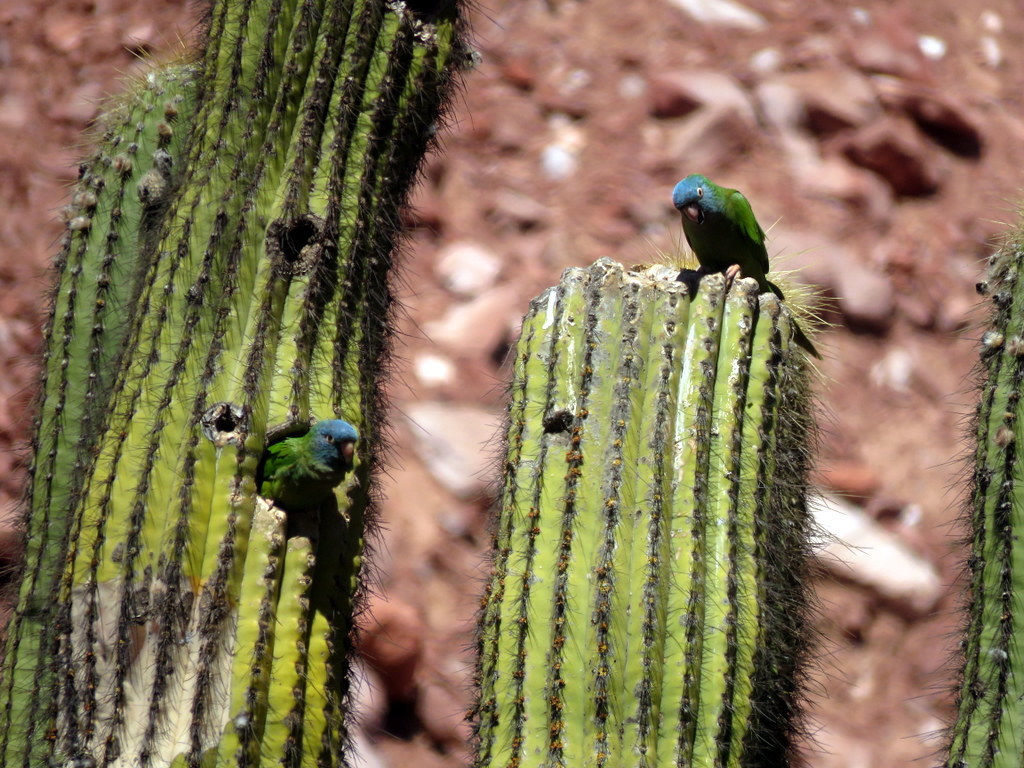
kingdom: Animalia
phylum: Chordata
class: Aves
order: Psittaciformes
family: Psittacidae
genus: Aratinga
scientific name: Aratinga acuticaudata
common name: Blue-crowned parakeet
